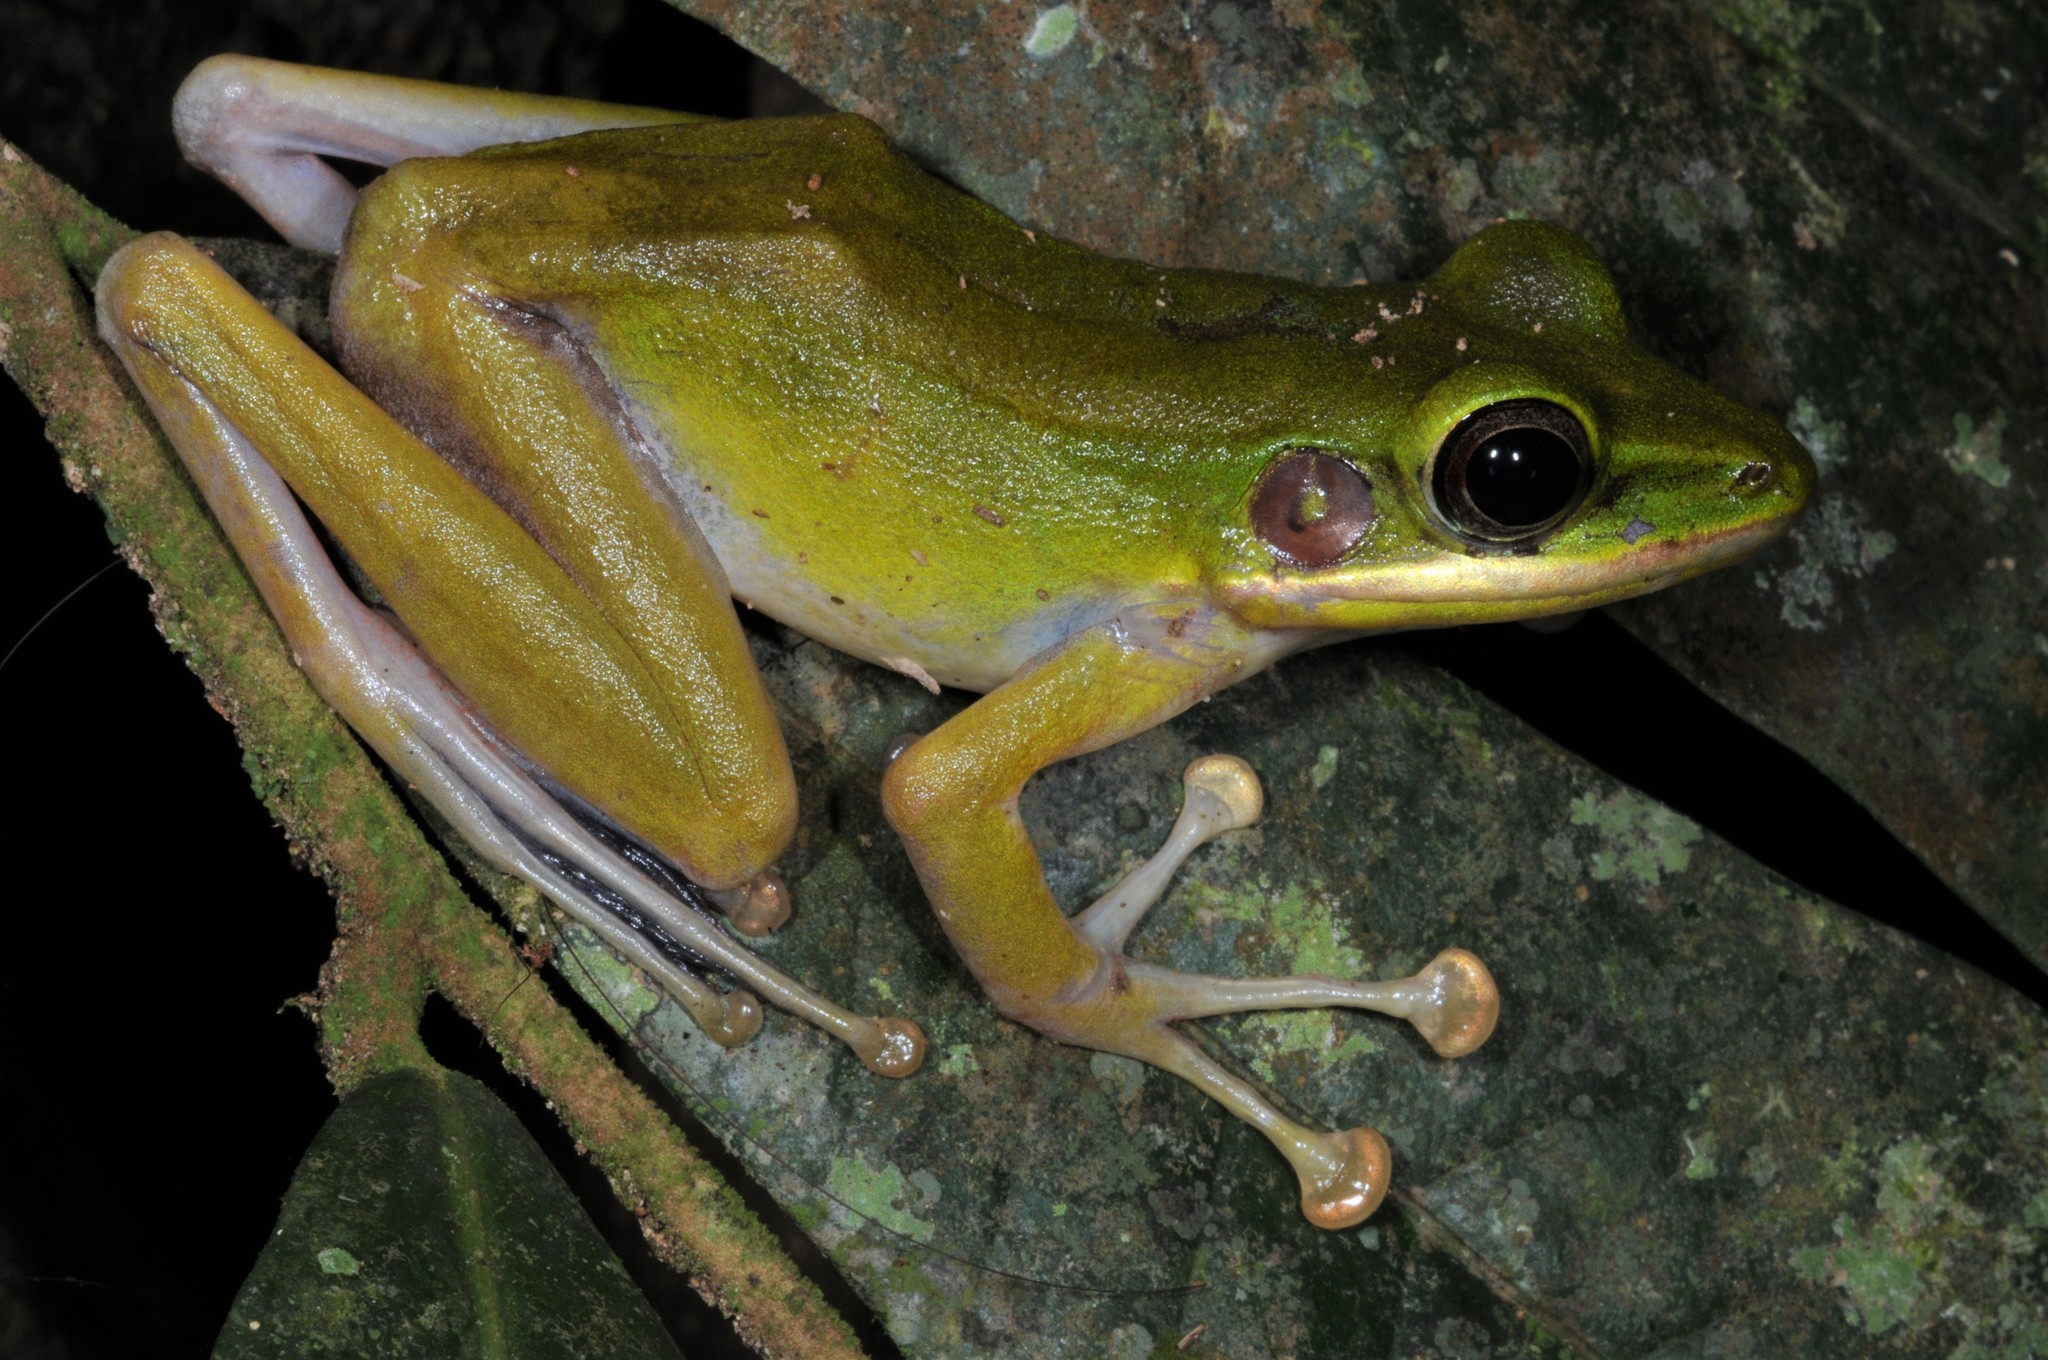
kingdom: Animalia
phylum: Chordata
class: Amphibia
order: Anura
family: Ranidae
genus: Chalcorana
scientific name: Chalcorana raniceps
